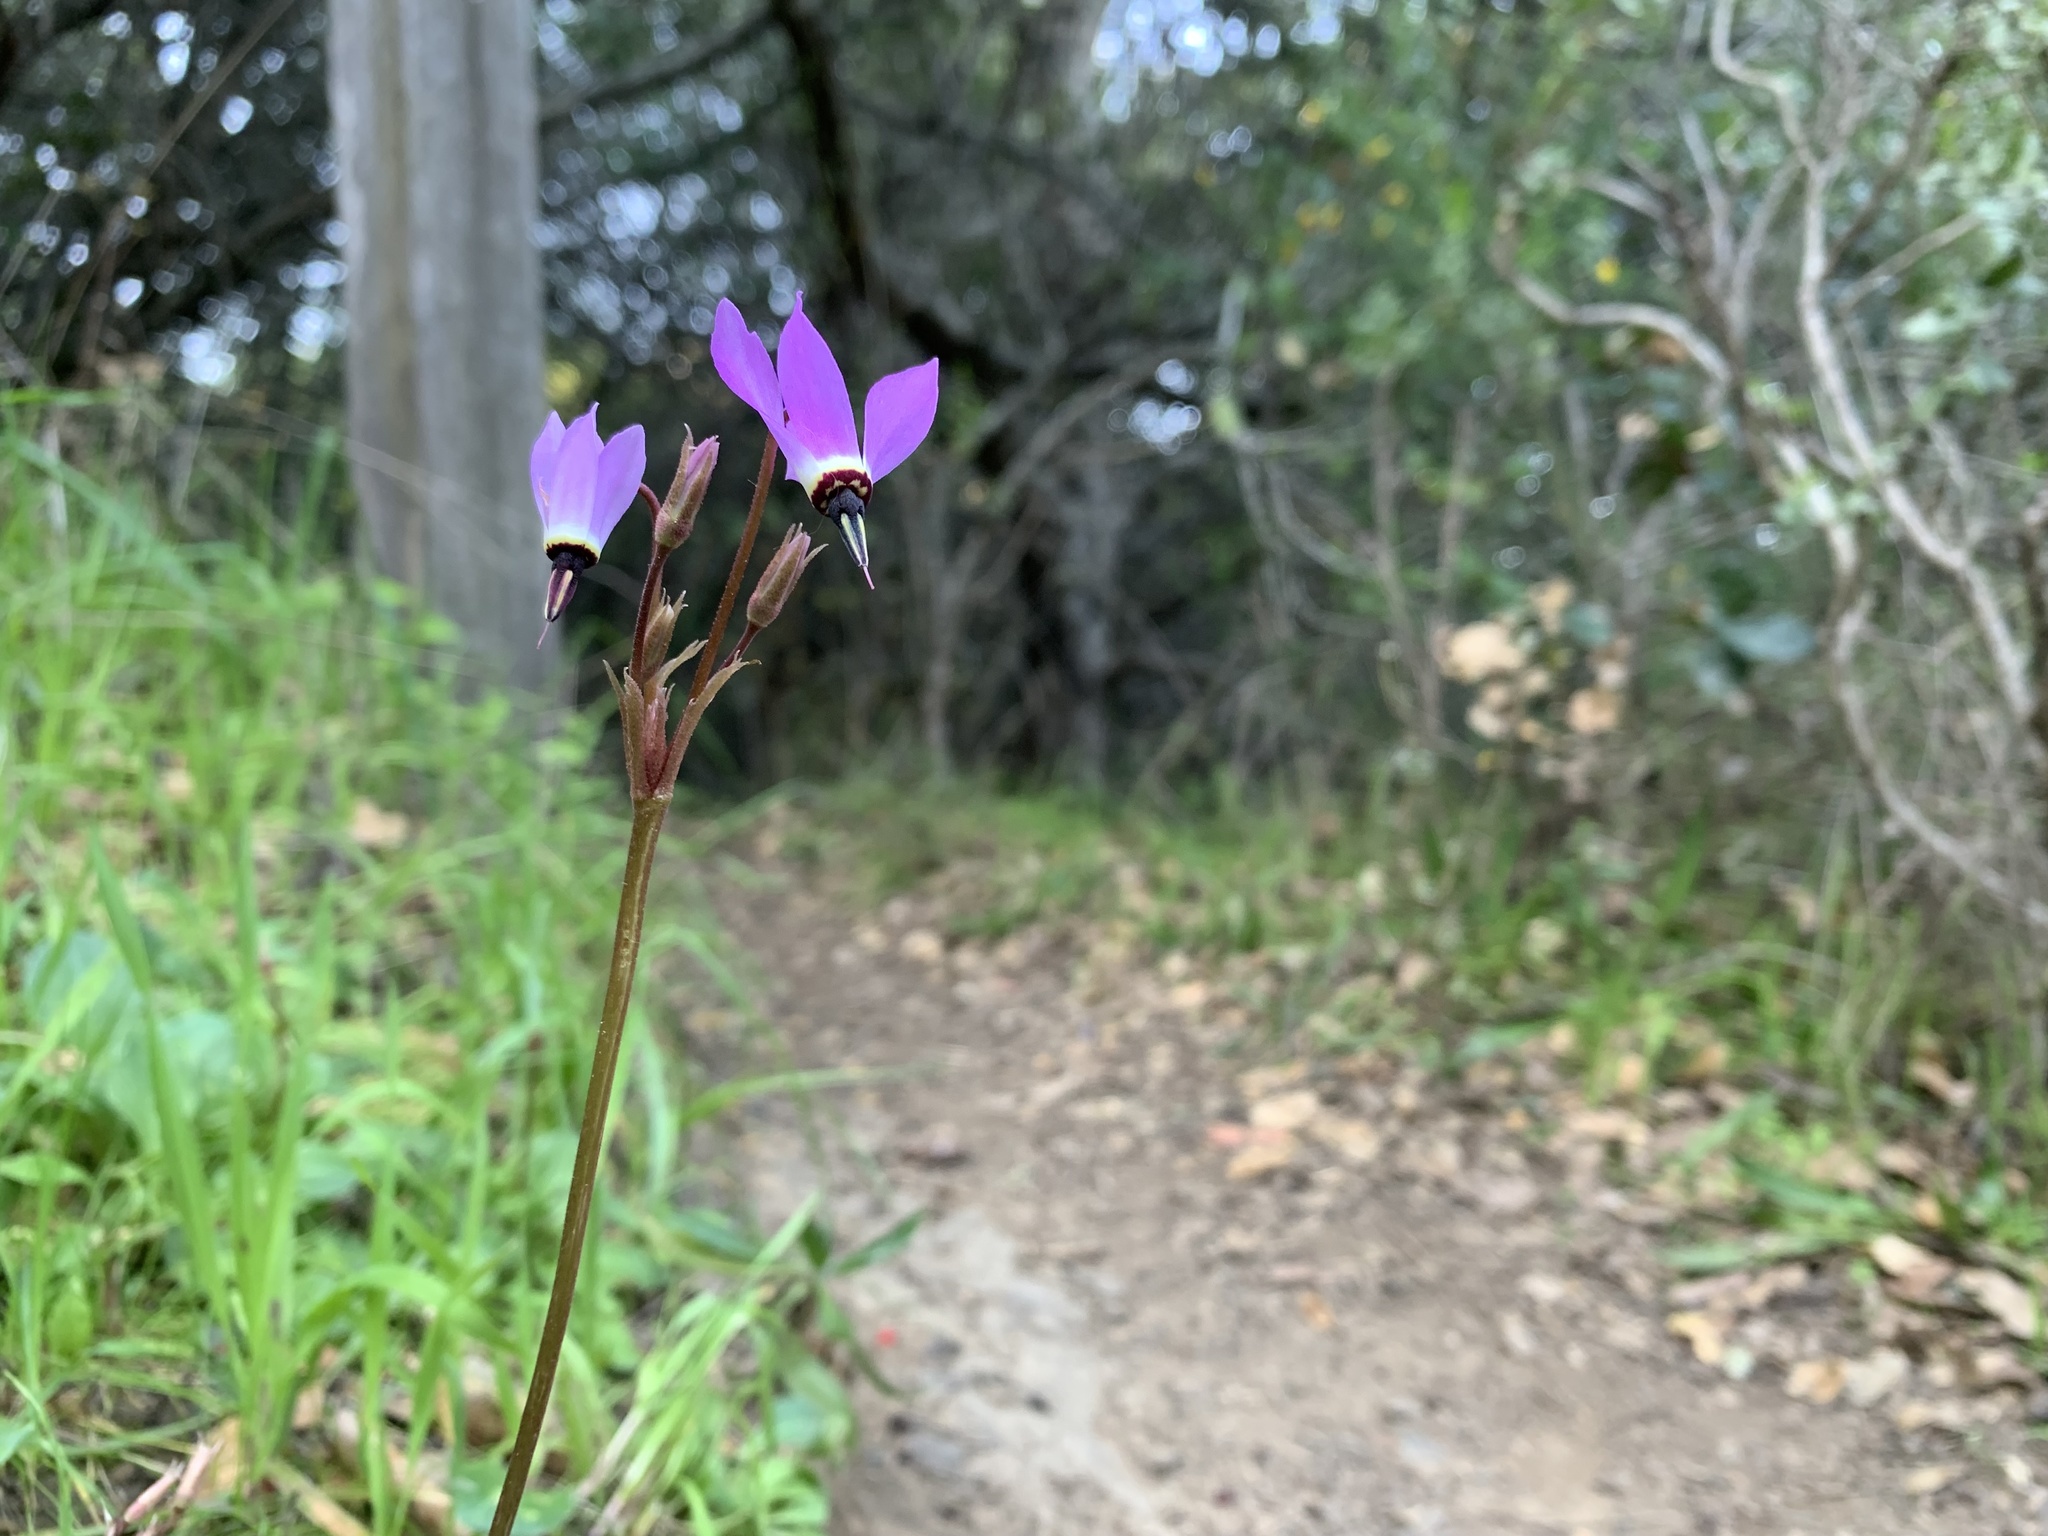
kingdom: Plantae
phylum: Tracheophyta
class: Magnoliopsida
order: Ericales
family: Primulaceae
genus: Dodecatheon
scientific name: Dodecatheon hendersonii
